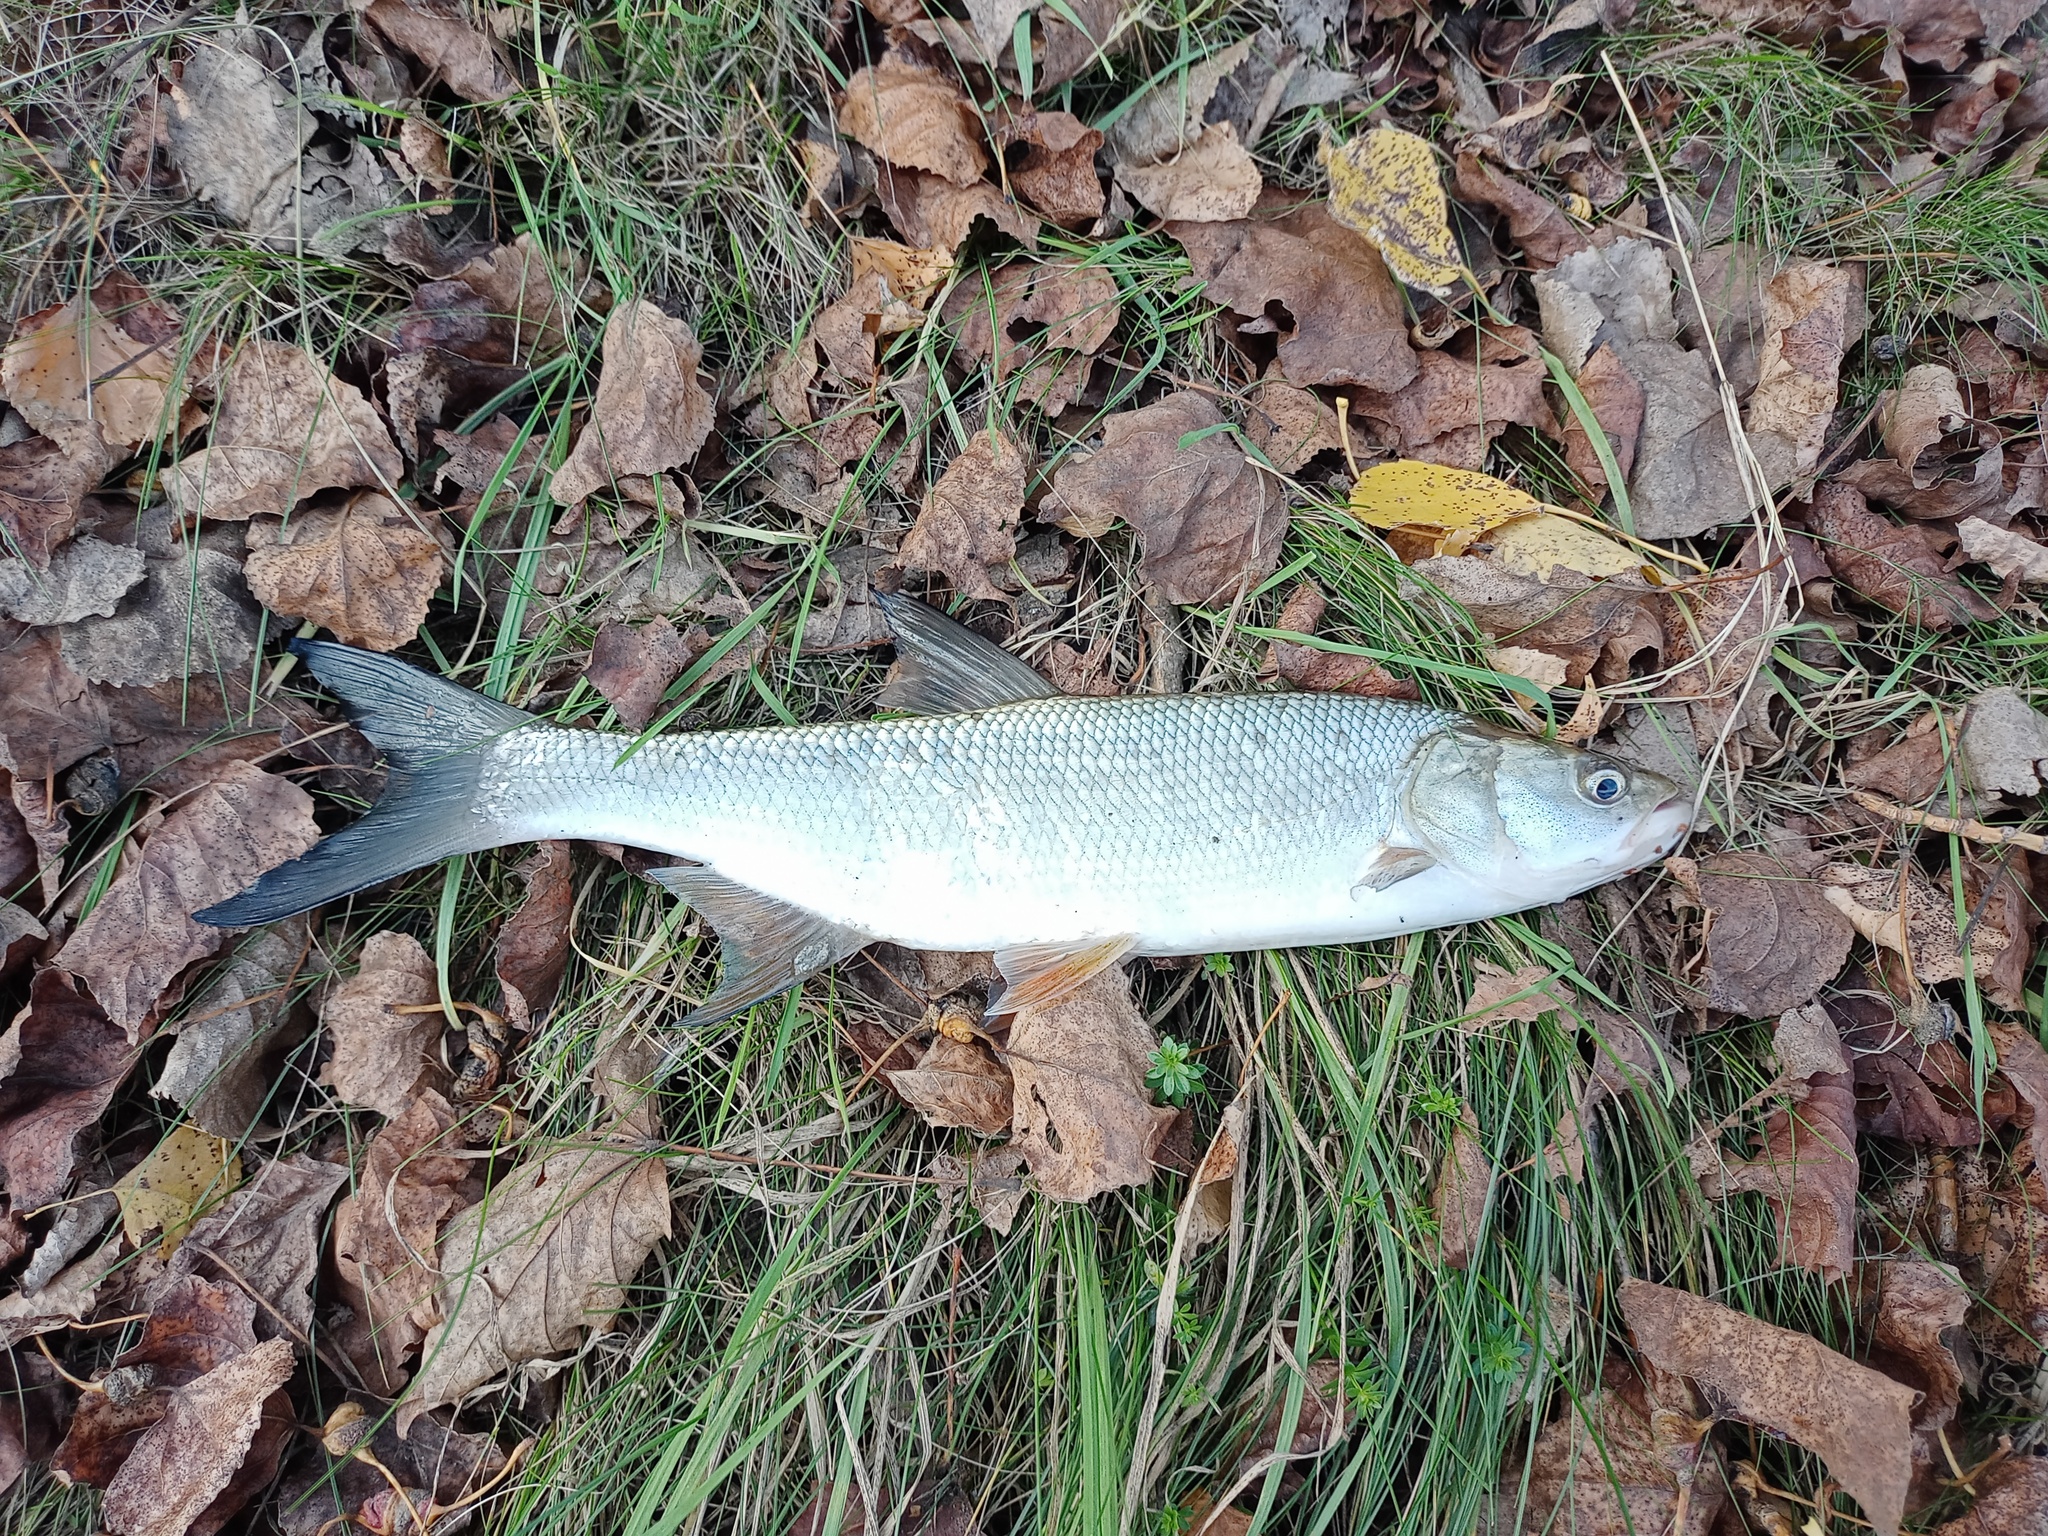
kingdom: Animalia
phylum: Chordata
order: Cypriniformes
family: Cyprinidae
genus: Leuciscus
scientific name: Leuciscus aspius
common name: Asp
